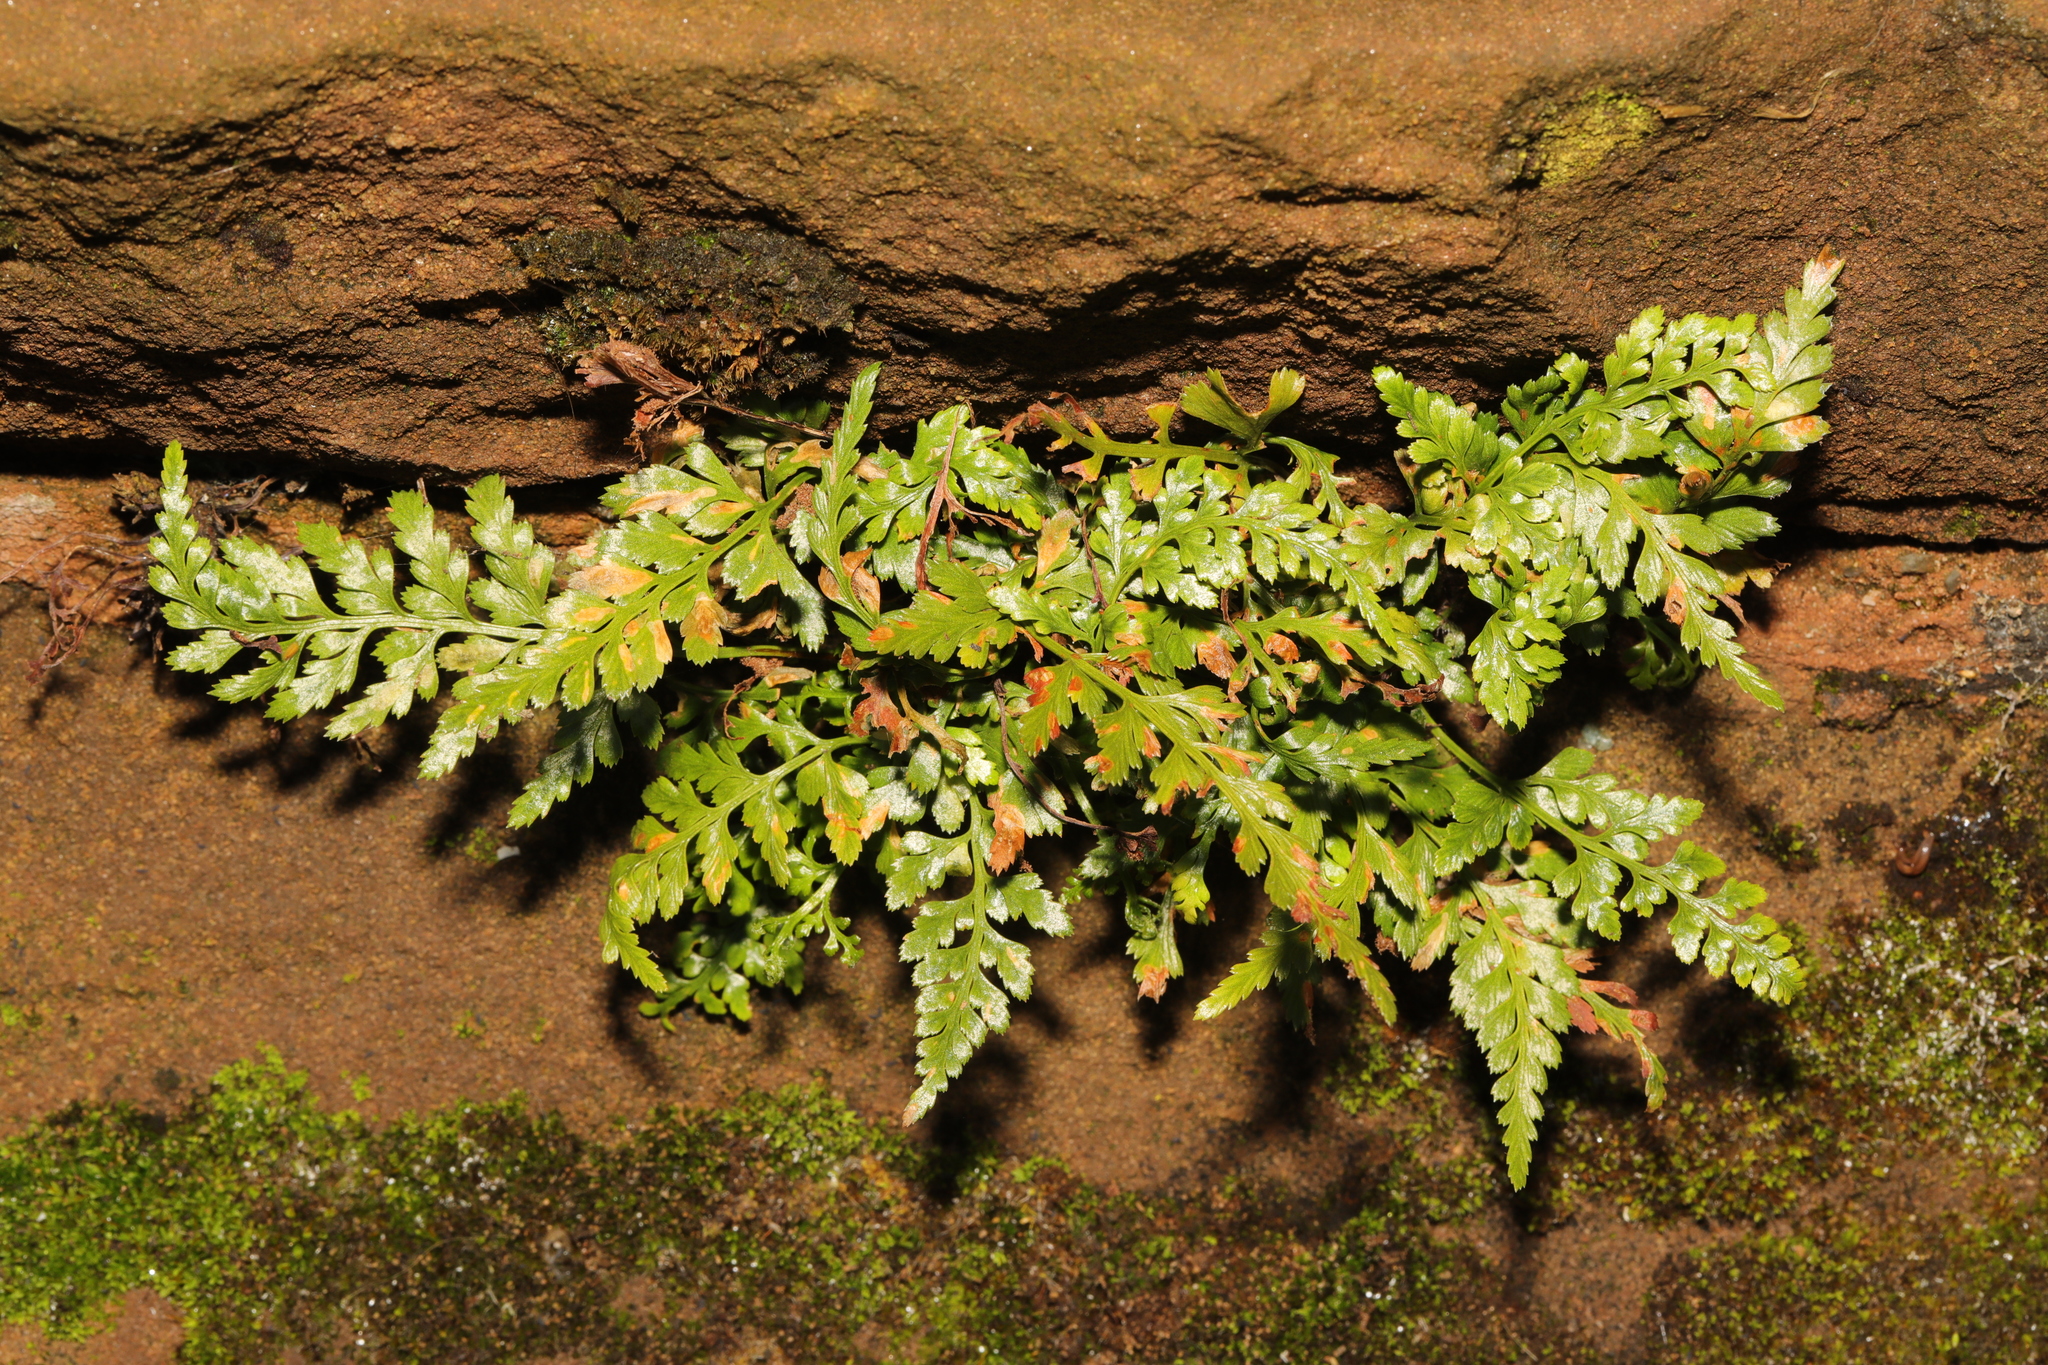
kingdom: Plantae
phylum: Tracheophyta
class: Polypodiopsida
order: Polypodiales
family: Aspleniaceae
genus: Asplenium
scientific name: Asplenium adiantum-nigrum
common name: Black spleenwort
